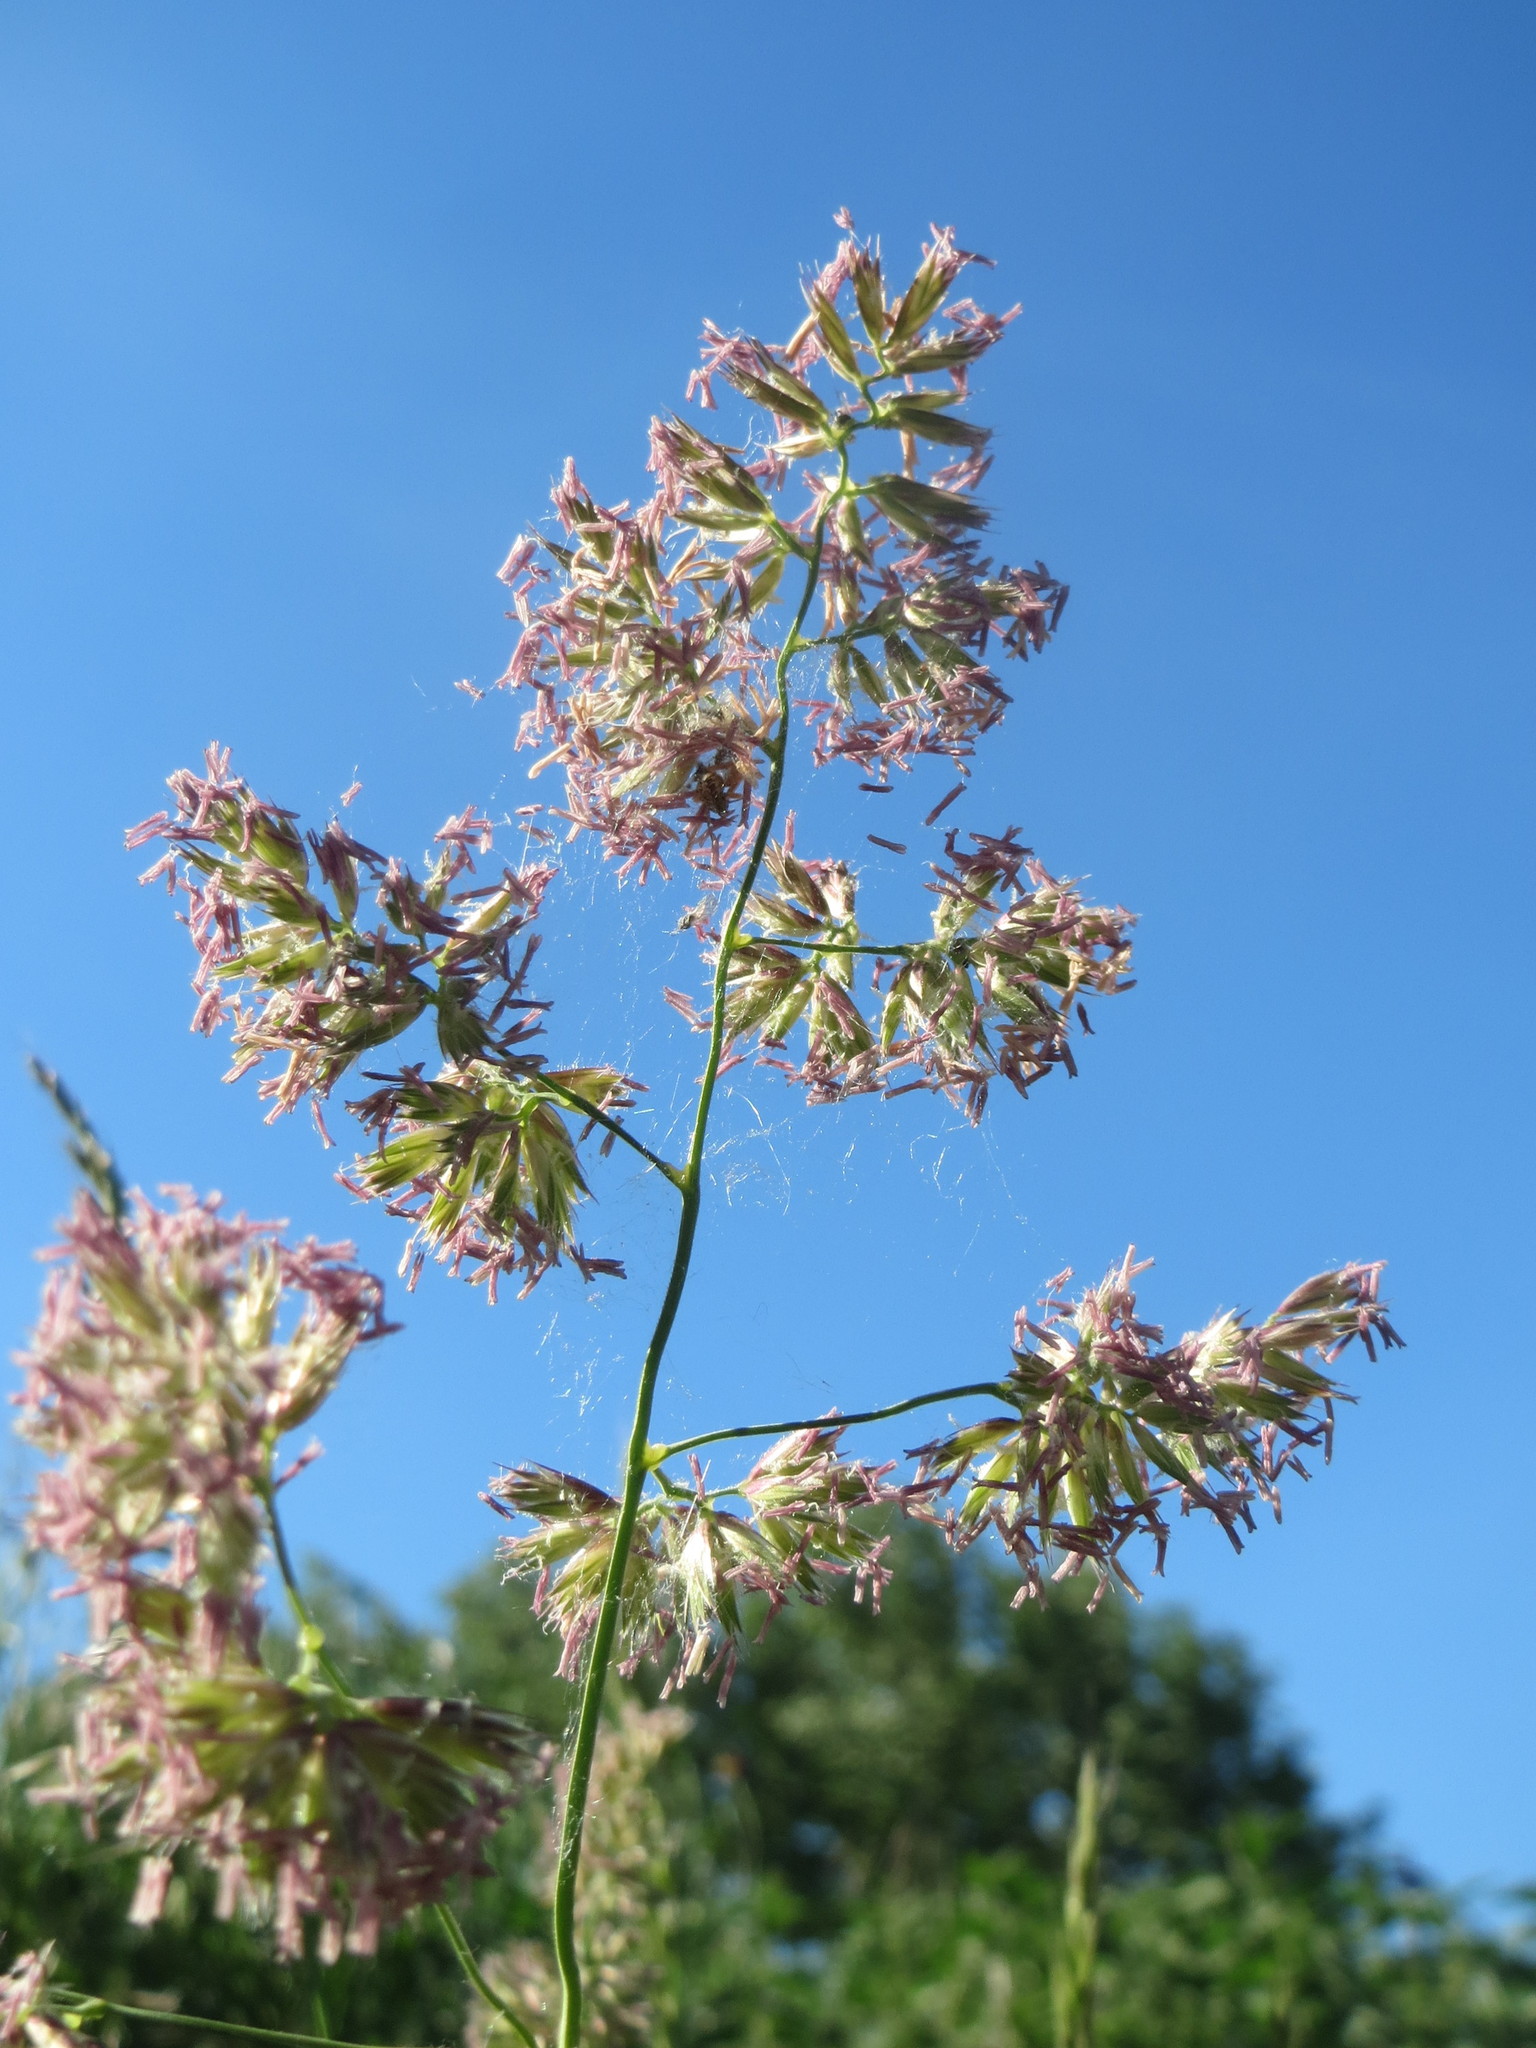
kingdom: Plantae
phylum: Tracheophyta
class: Liliopsida
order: Poales
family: Poaceae
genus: Dactylis
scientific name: Dactylis glomerata
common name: Orchardgrass
